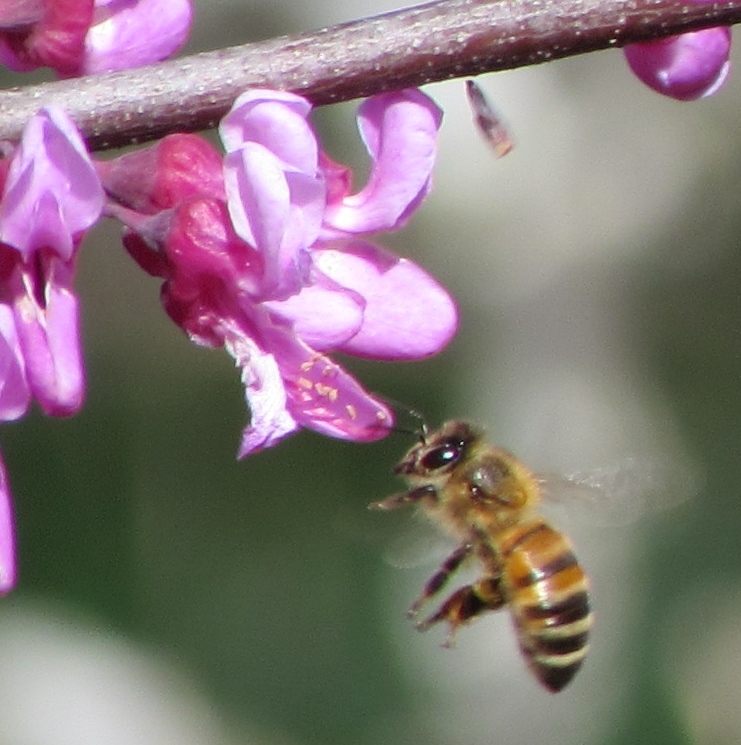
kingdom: Animalia
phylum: Arthropoda
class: Insecta
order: Hymenoptera
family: Apidae
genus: Apis
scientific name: Apis mellifera
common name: Honey bee
